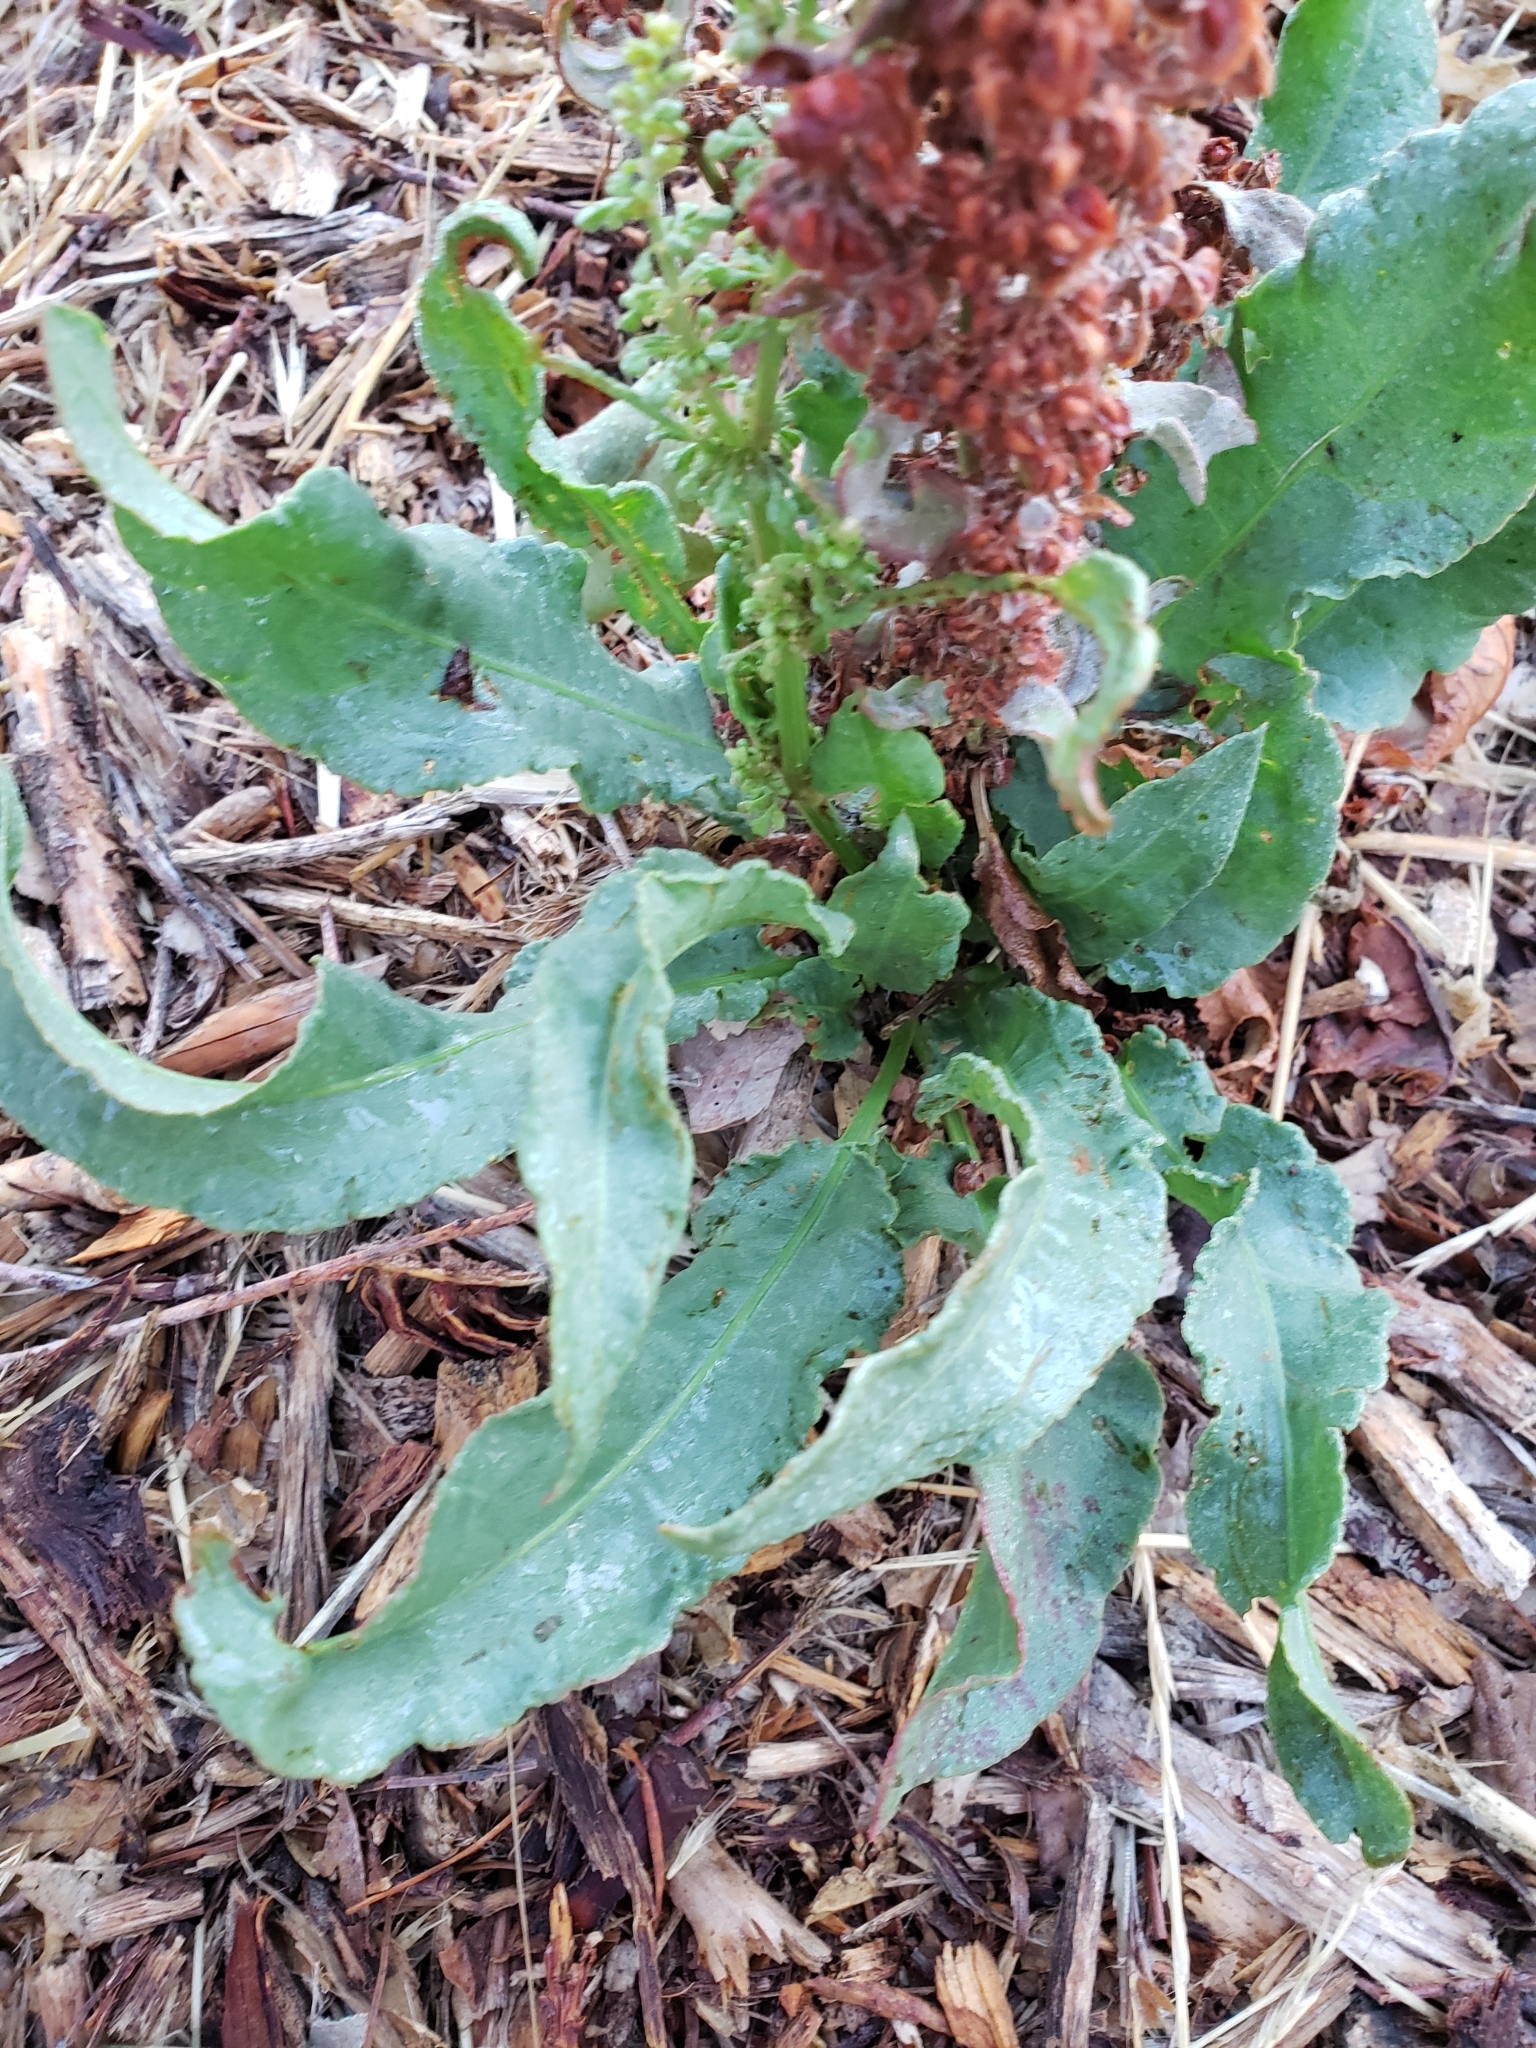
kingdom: Plantae
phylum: Tracheophyta
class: Magnoliopsida
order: Caryophyllales
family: Polygonaceae
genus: Rumex
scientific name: Rumex crispus
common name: Curled dock
